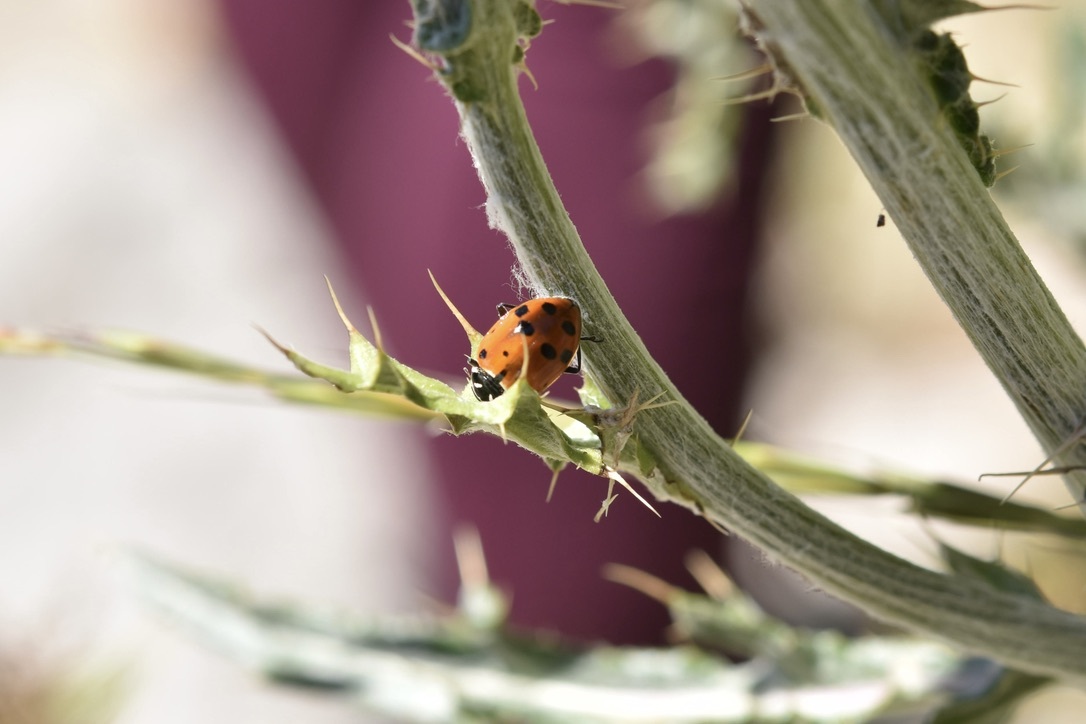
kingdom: Animalia
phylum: Arthropoda
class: Insecta
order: Coleoptera
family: Coccinellidae
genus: Hippodamia
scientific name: Hippodamia convergens
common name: Convergent lady beetle
